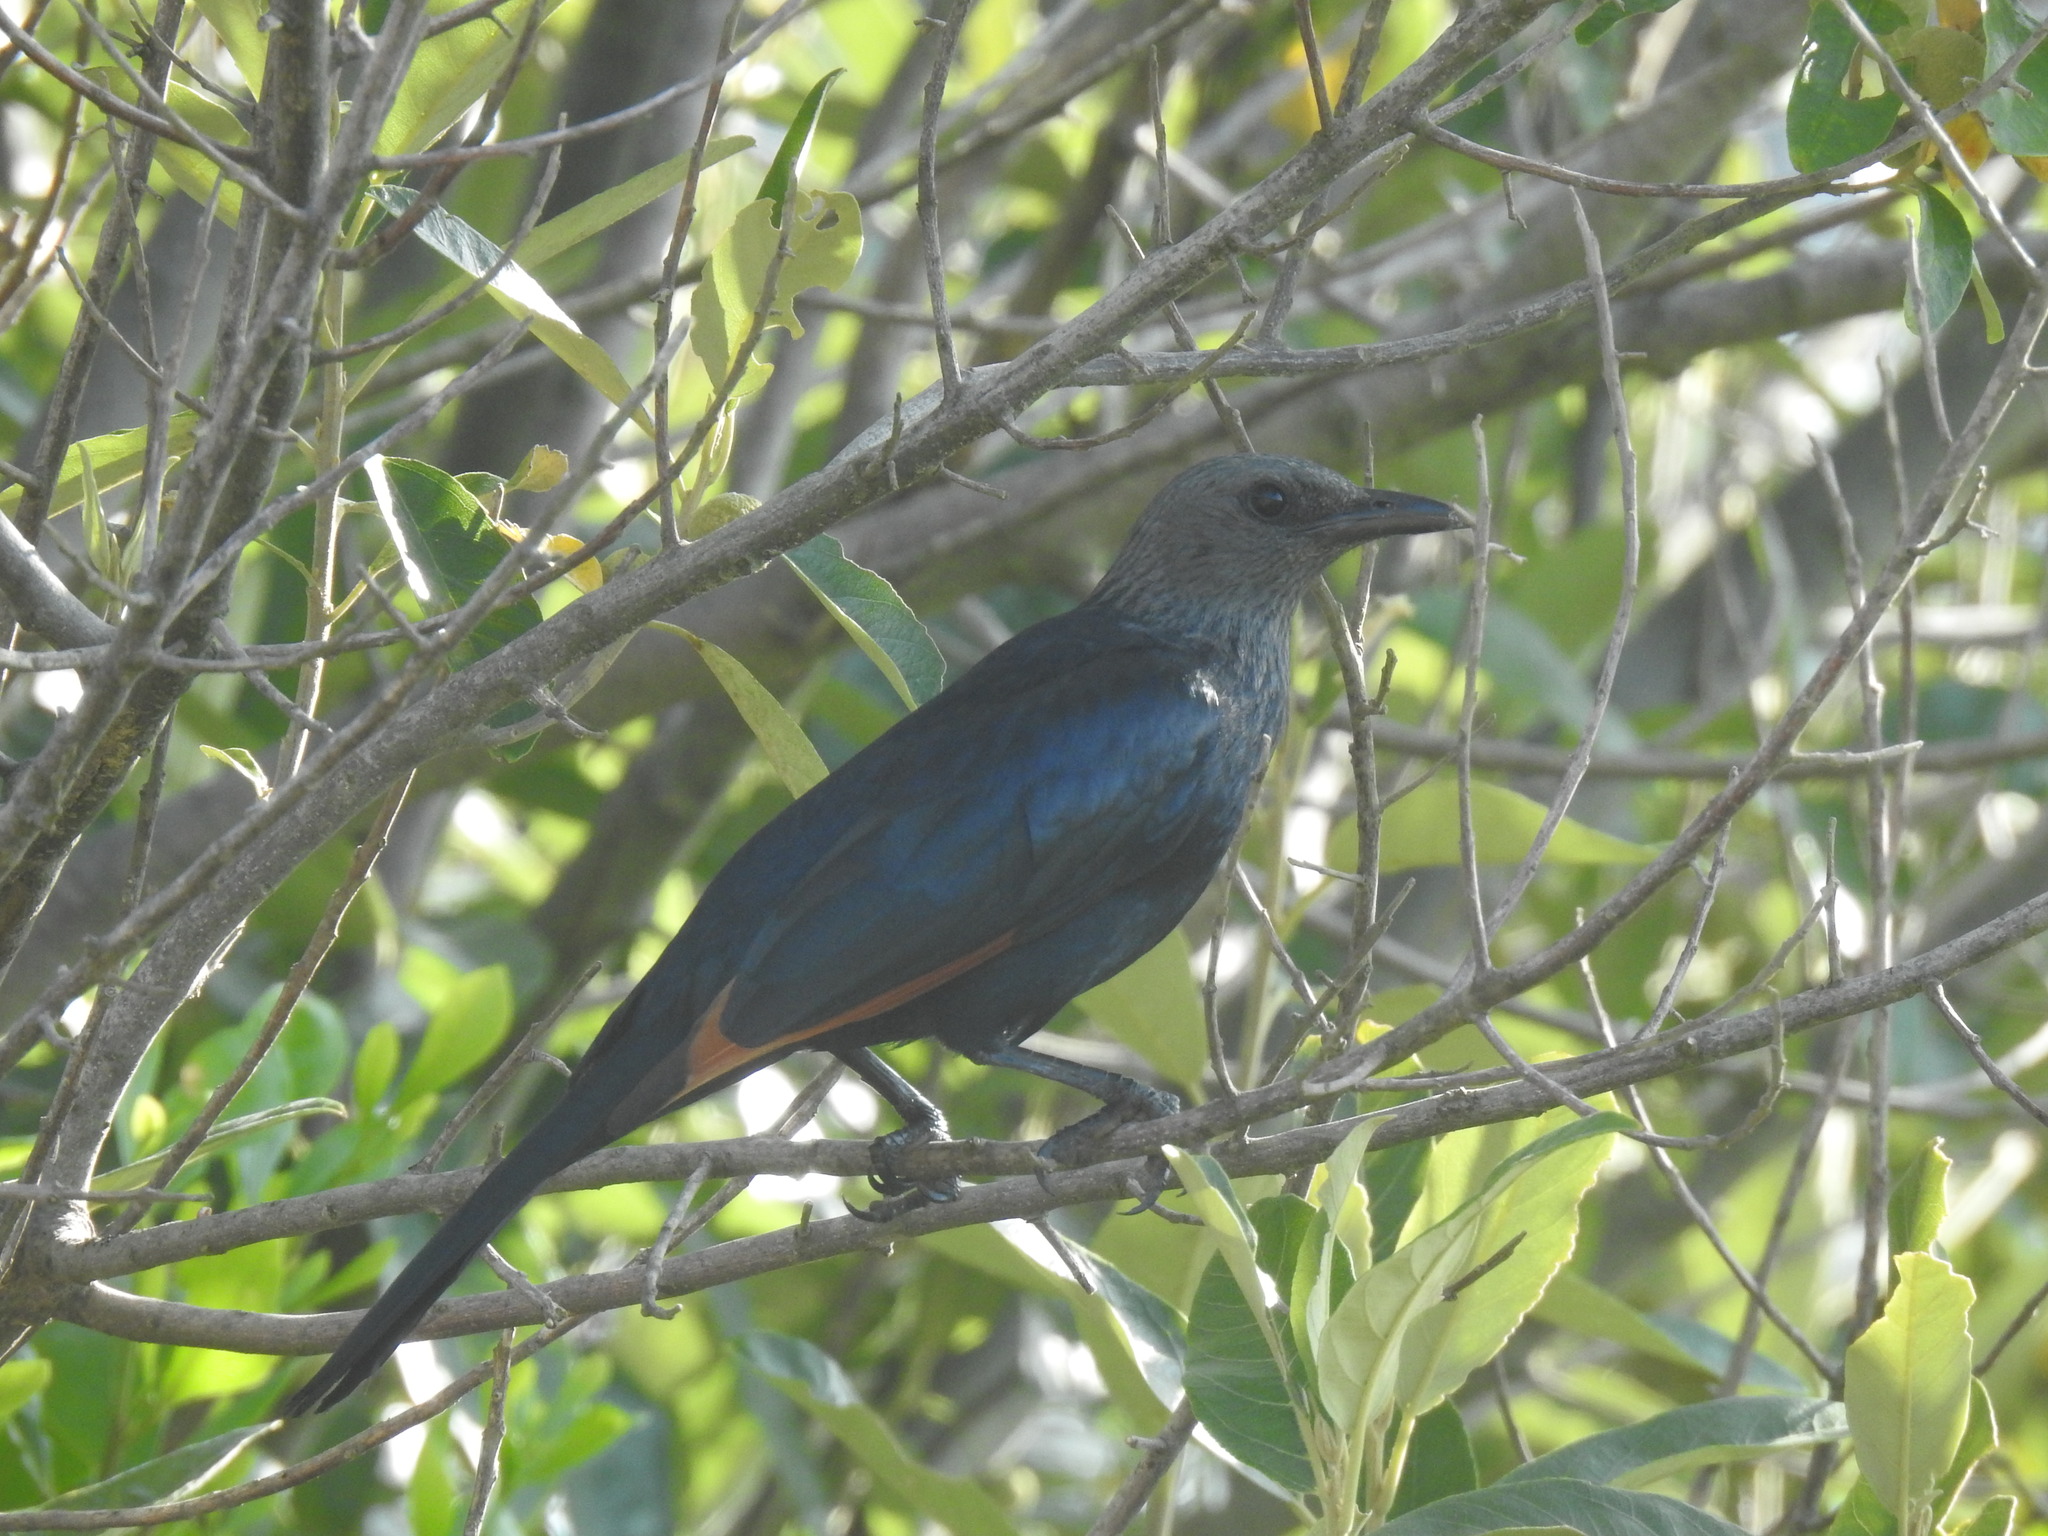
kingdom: Animalia
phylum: Chordata
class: Aves
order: Passeriformes
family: Sturnidae
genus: Onychognathus
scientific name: Onychognathus morio
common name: Red-winged starling
